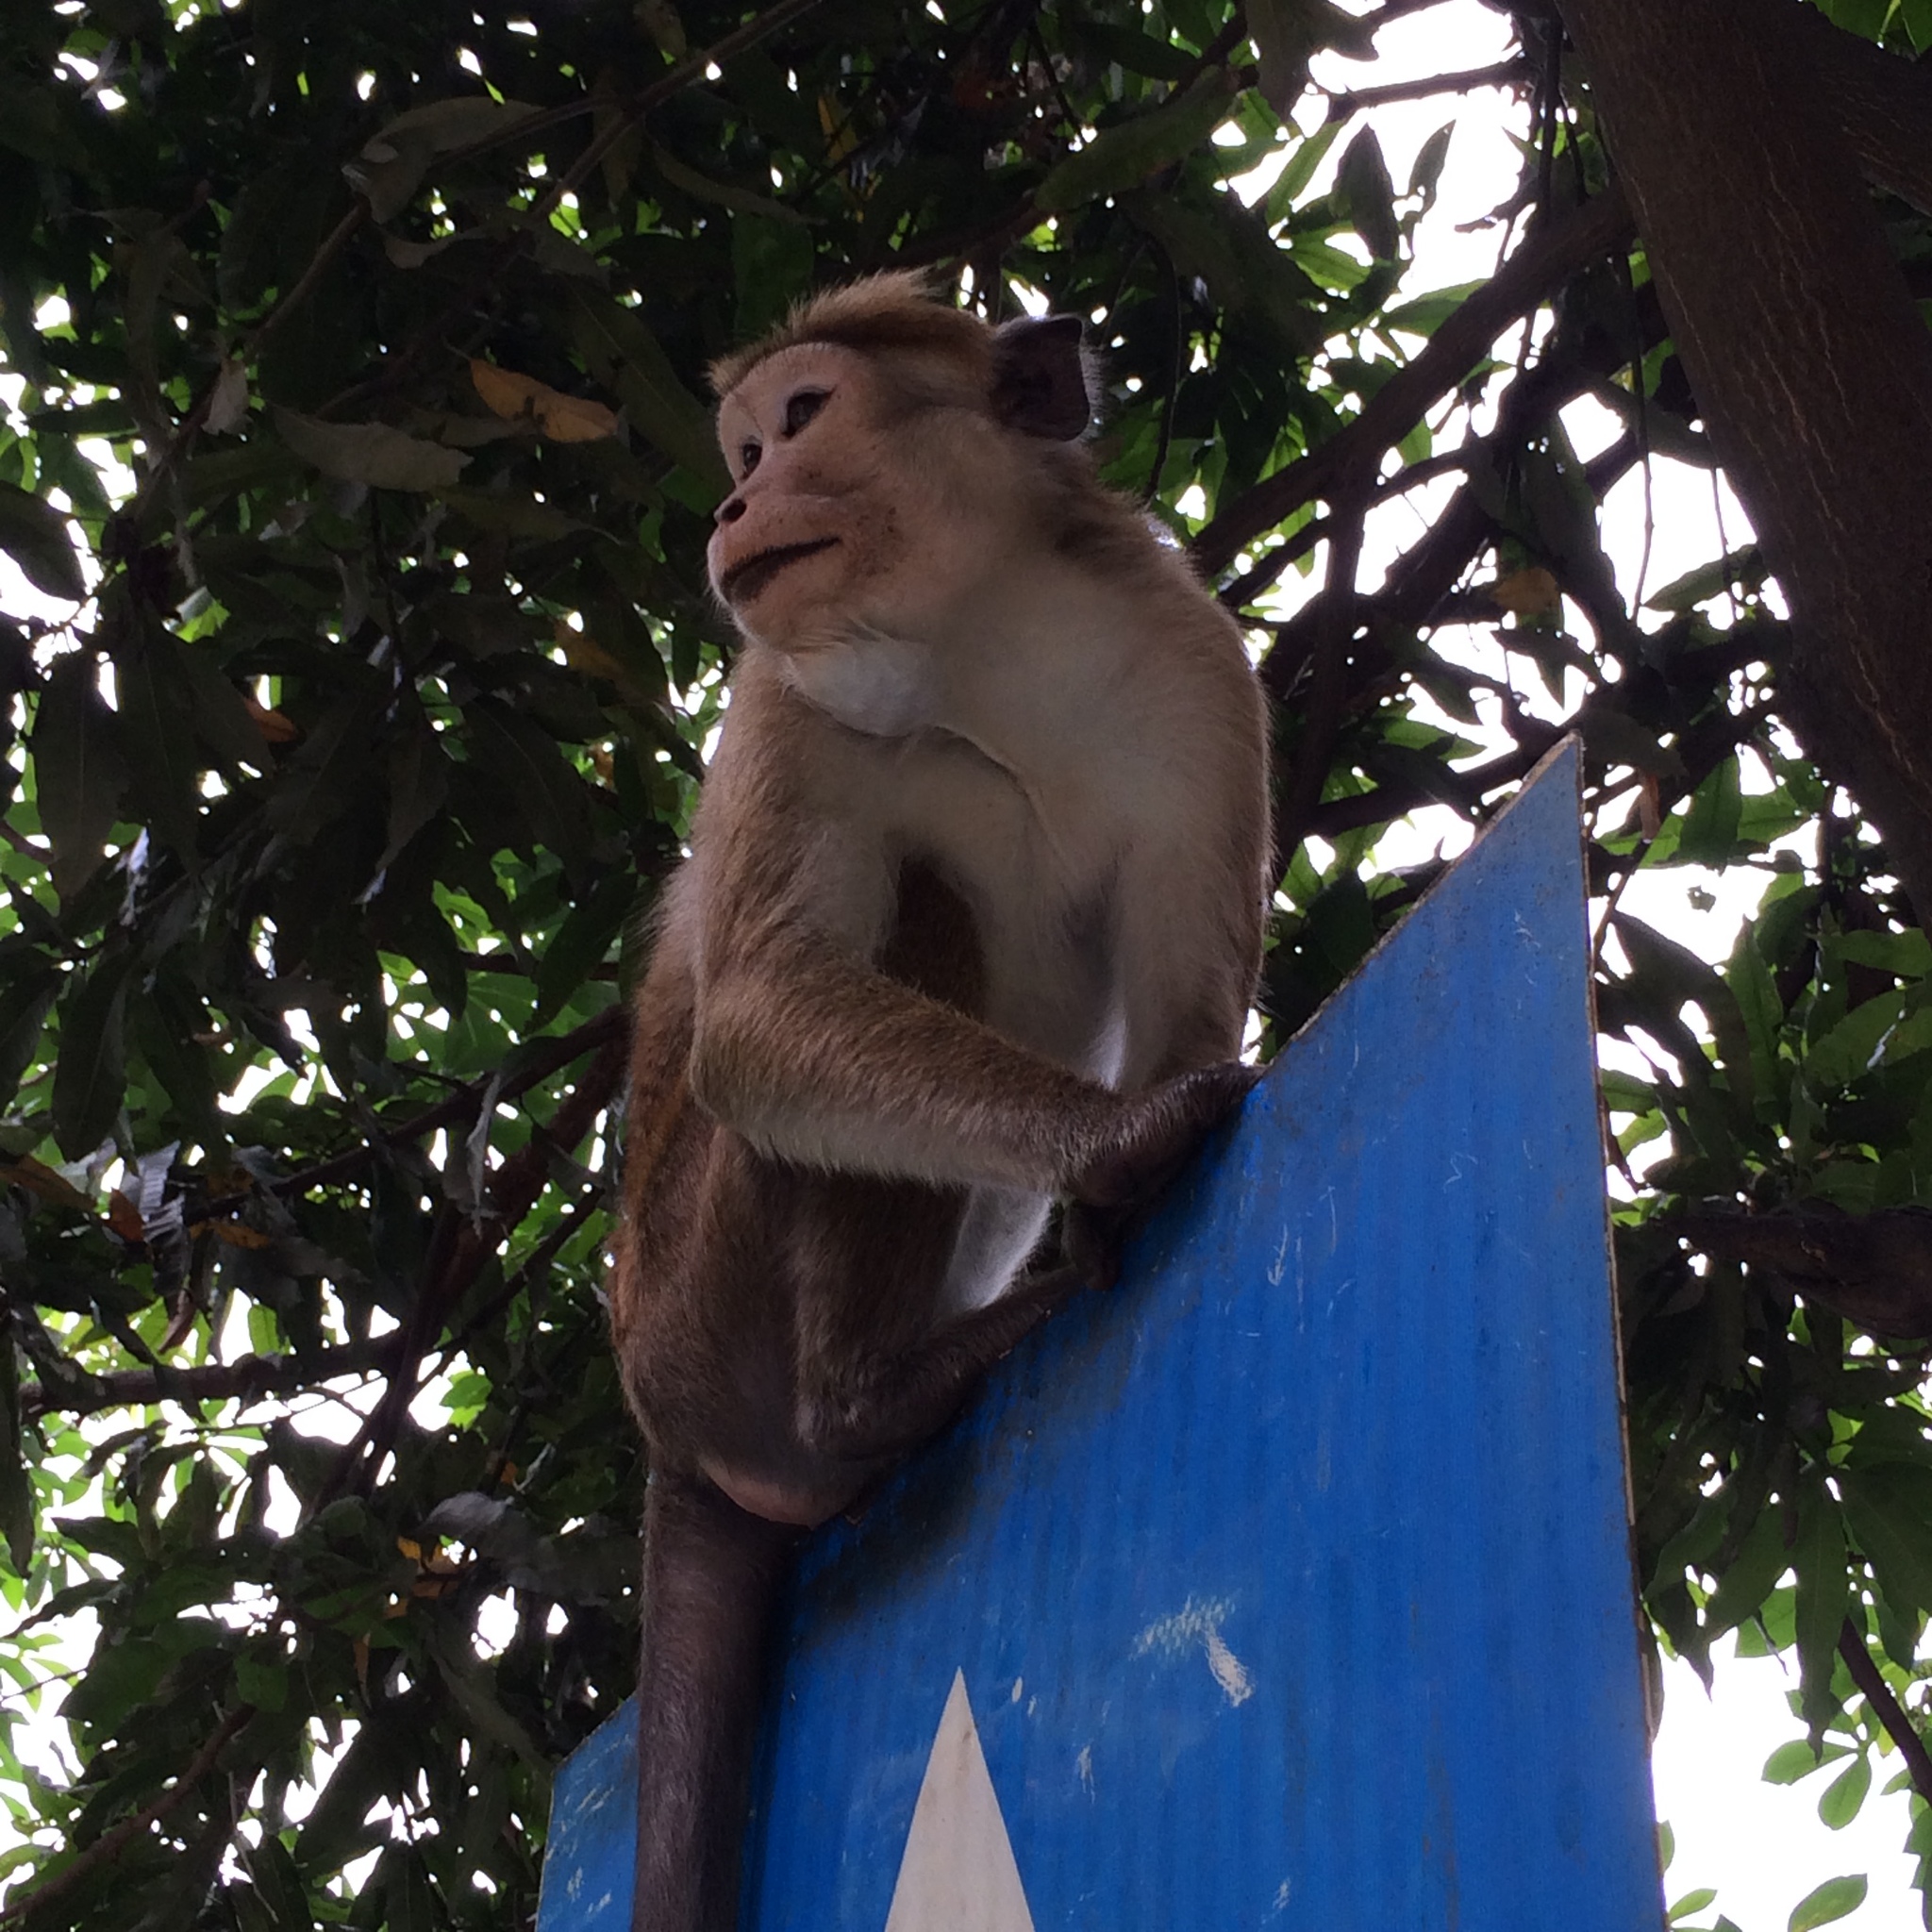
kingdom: Animalia
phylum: Chordata
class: Mammalia
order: Primates
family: Cercopithecidae
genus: Macaca
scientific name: Macaca sinica
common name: Toque macaque
